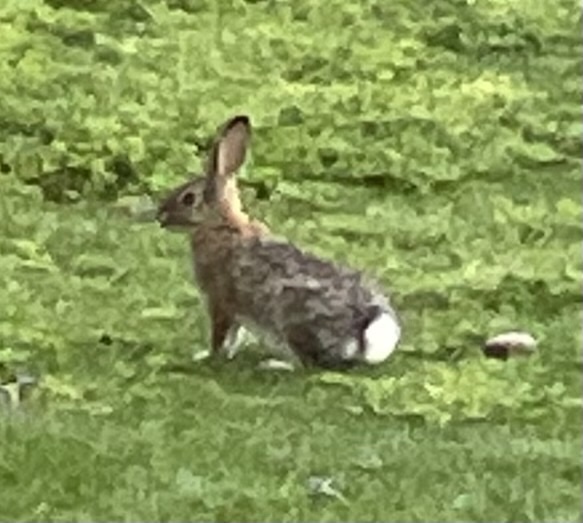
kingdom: Animalia
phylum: Chordata
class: Mammalia
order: Lagomorpha
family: Leporidae
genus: Sylvilagus
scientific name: Sylvilagus audubonii
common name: Desert cottontail
